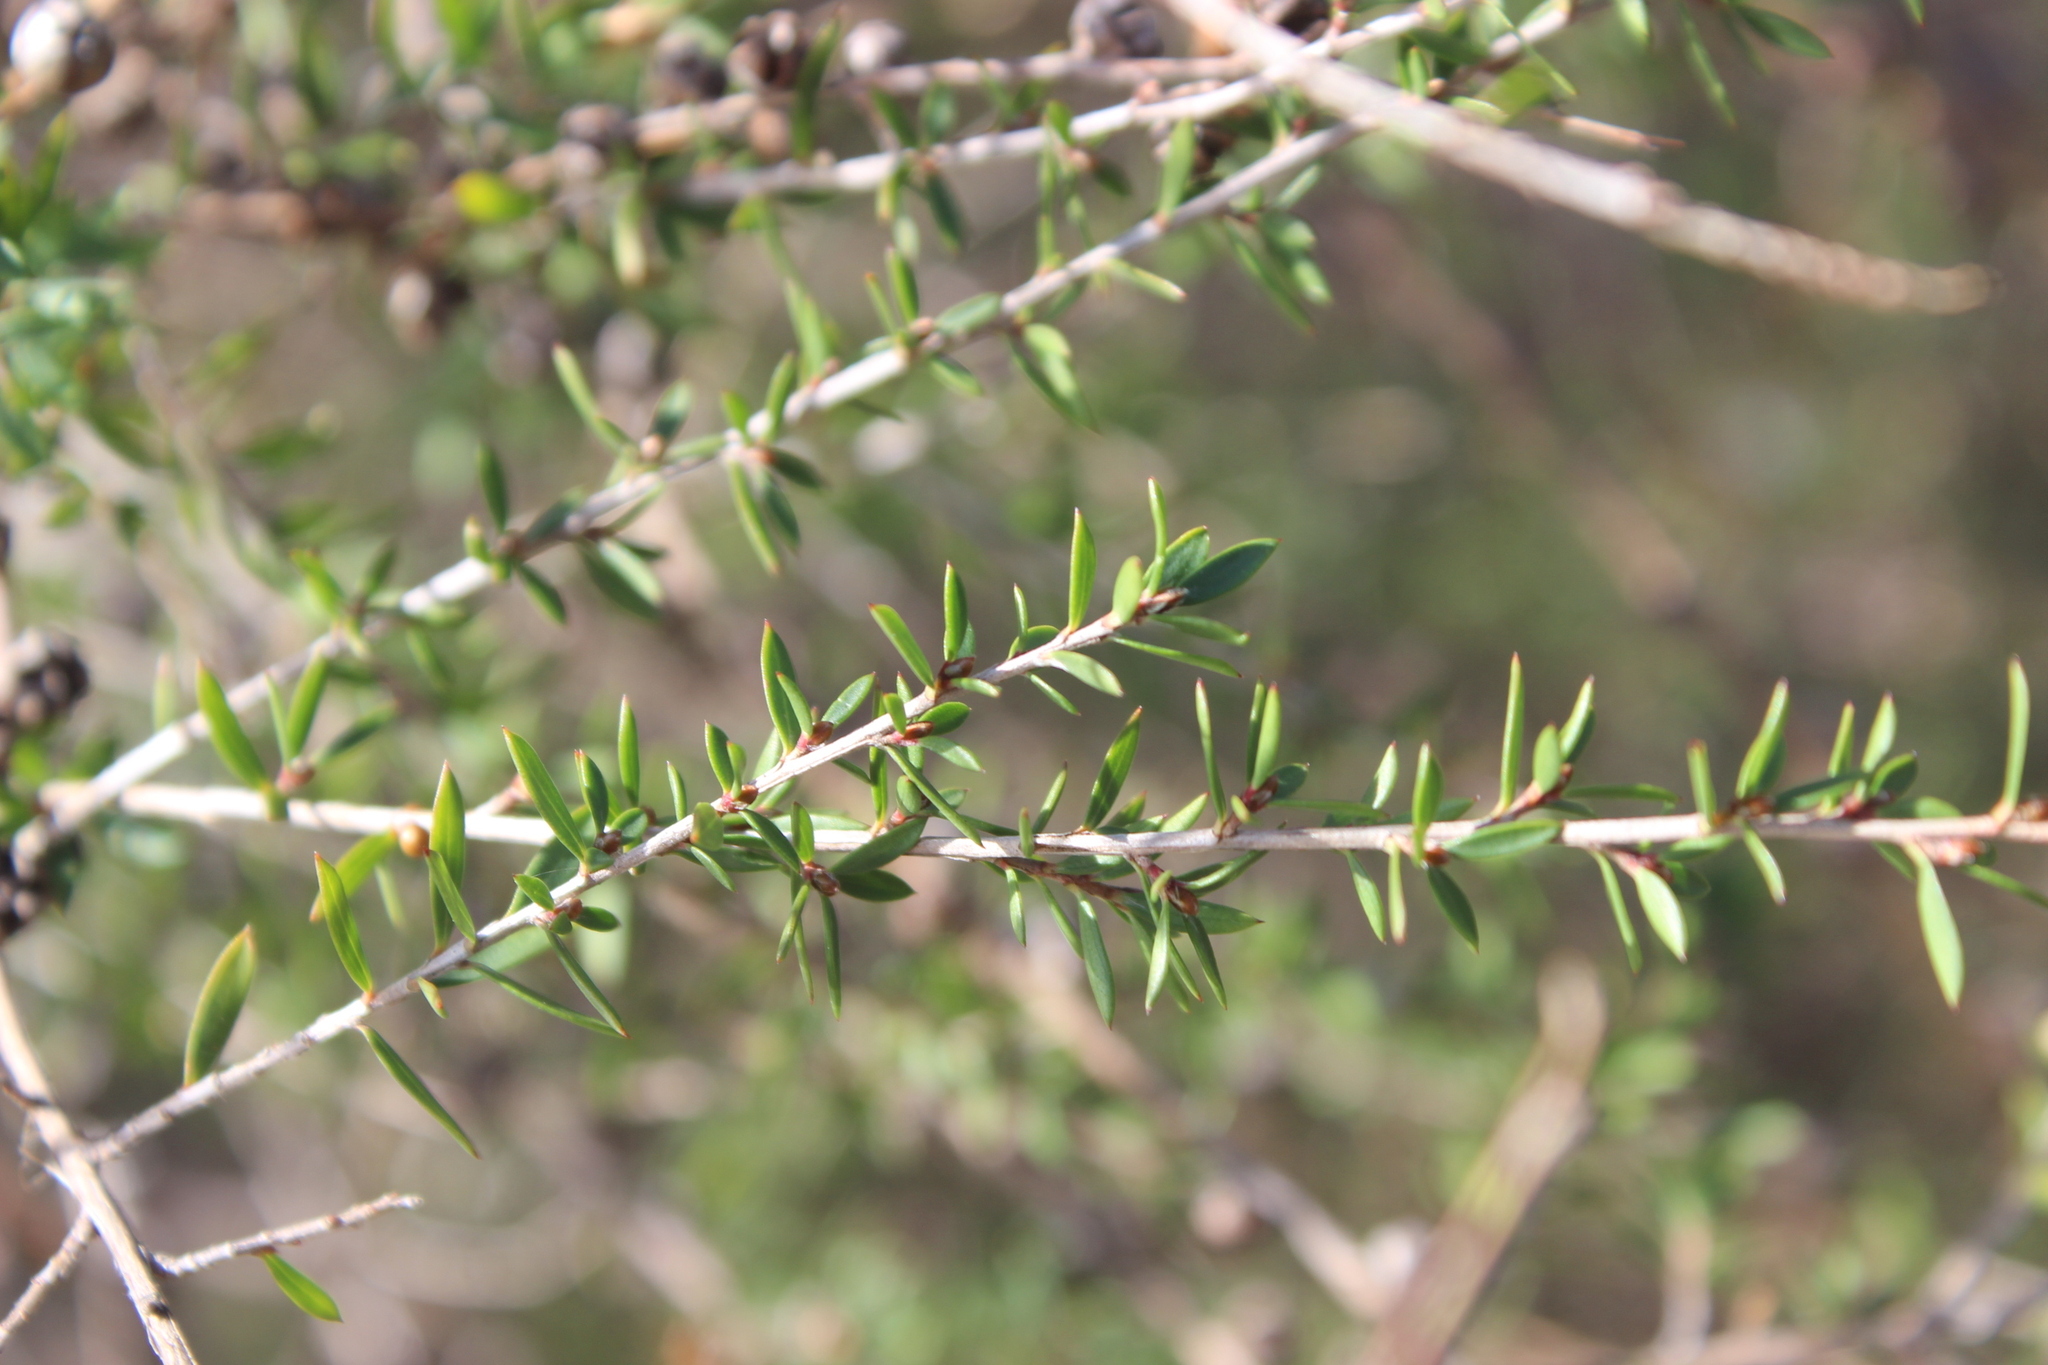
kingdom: Plantae
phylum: Tracheophyta
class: Magnoliopsida
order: Myrtales
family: Myrtaceae
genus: Leptospermum
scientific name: Leptospermum scoparium
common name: Broom tea-tree
